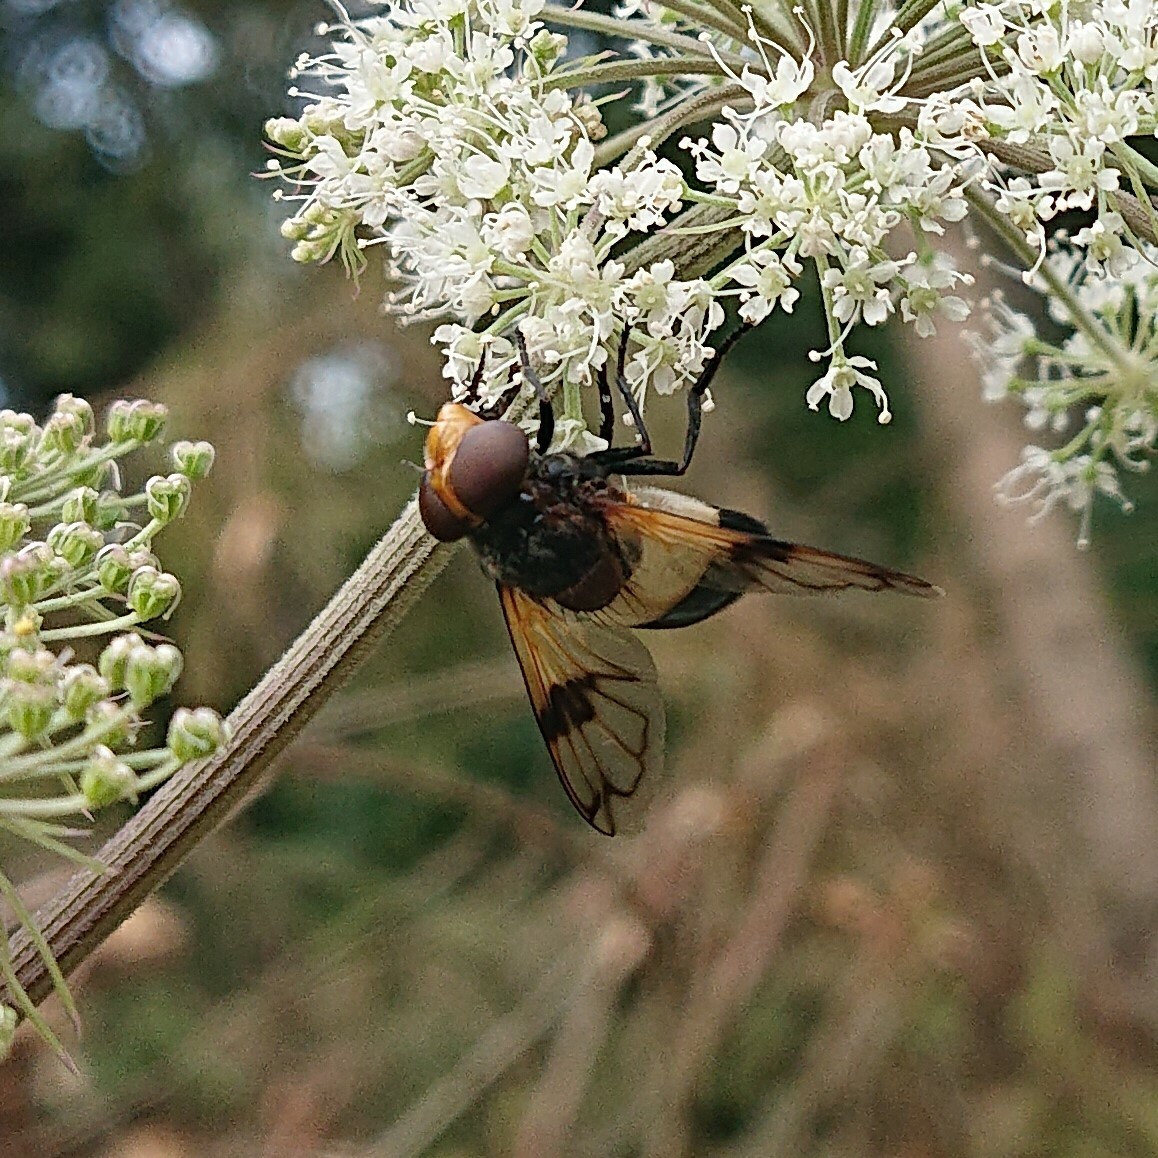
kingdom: Animalia
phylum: Arthropoda
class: Insecta
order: Diptera
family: Syrphidae
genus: Volucella
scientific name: Volucella pellucens
